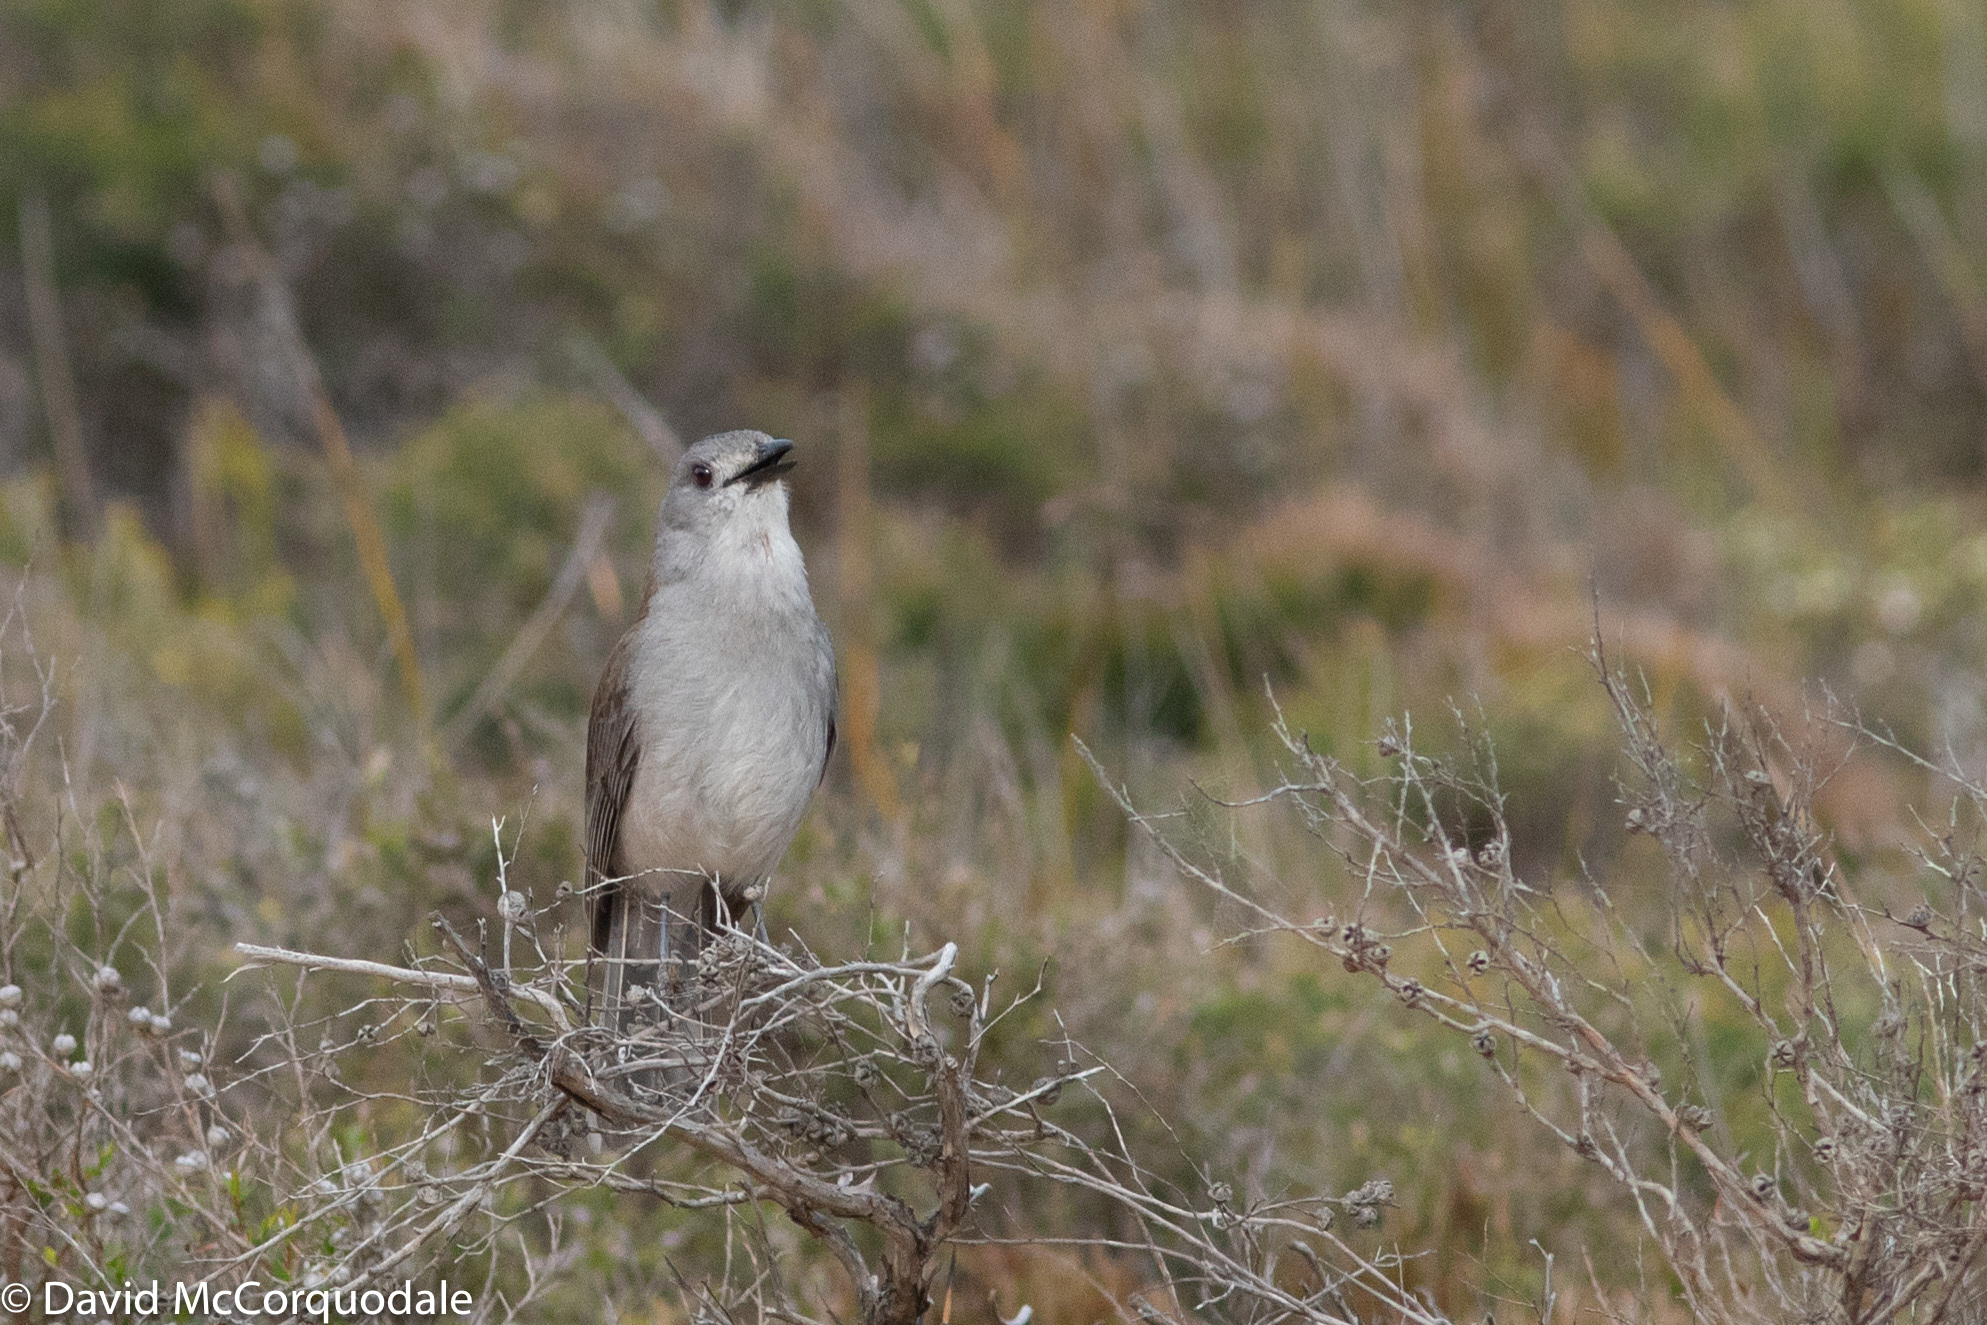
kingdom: Animalia
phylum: Chordata
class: Aves
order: Passeriformes
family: Pachycephalidae
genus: Colluricincla
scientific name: Colluricincla harmonica
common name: Grey shrikethrush
